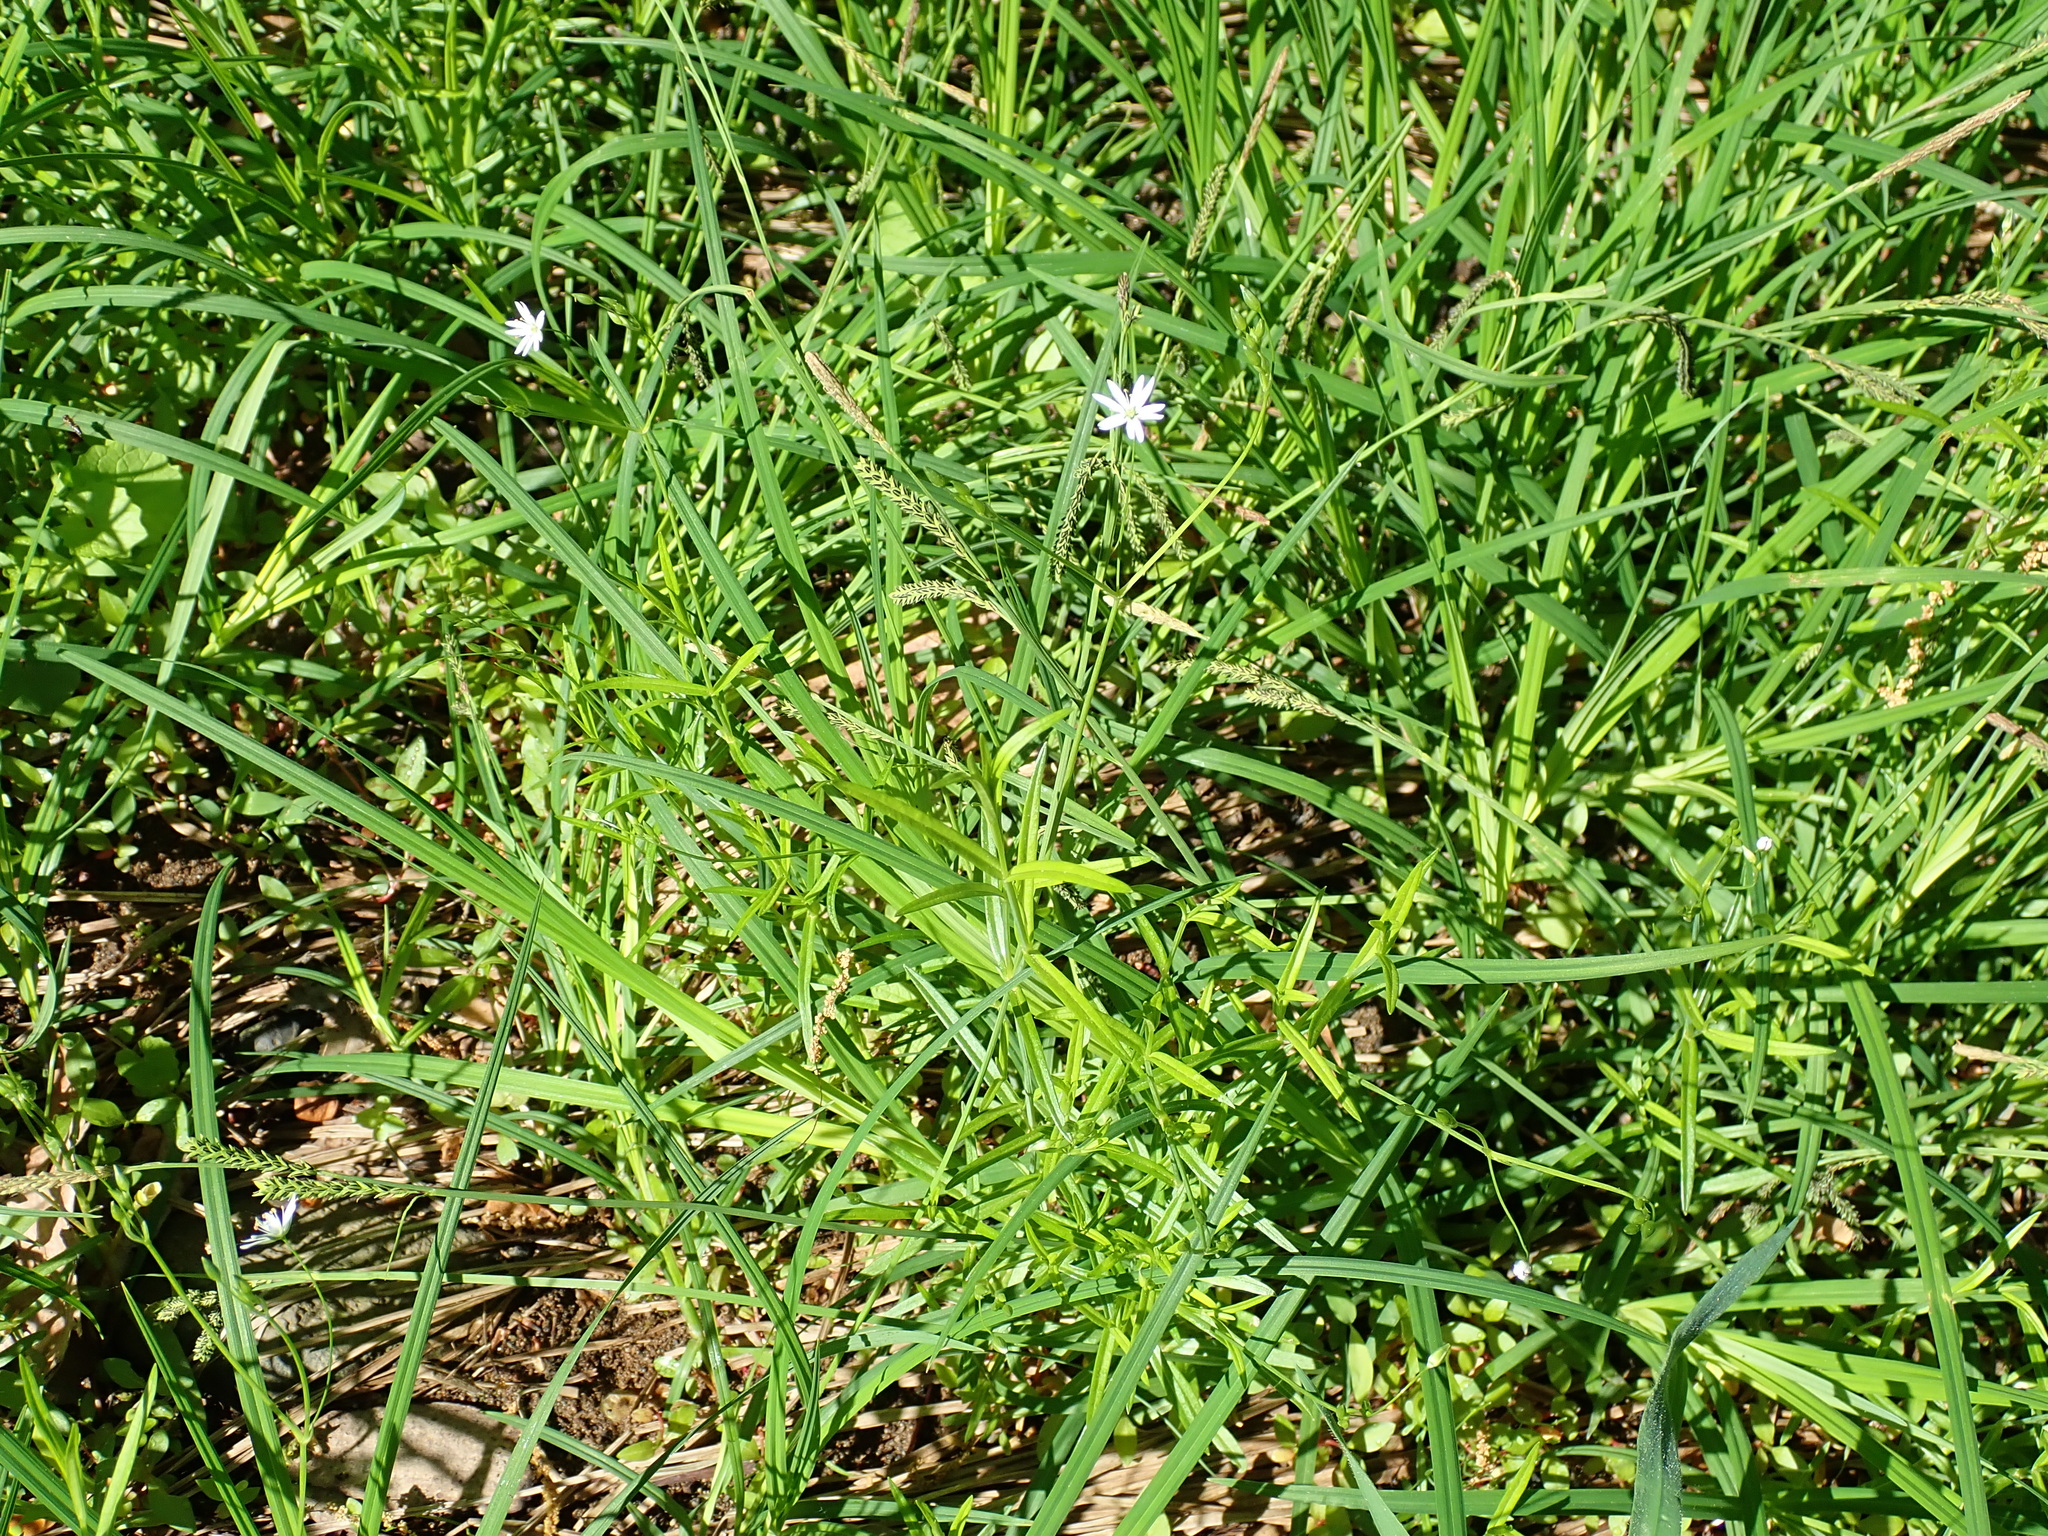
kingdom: Plantae
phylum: Tracheophyta
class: Magnoliopsida
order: Caryophyllales
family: Caryophyllaceae
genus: Stellaria
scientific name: Stellaria graminea
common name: Grass-like starwort
